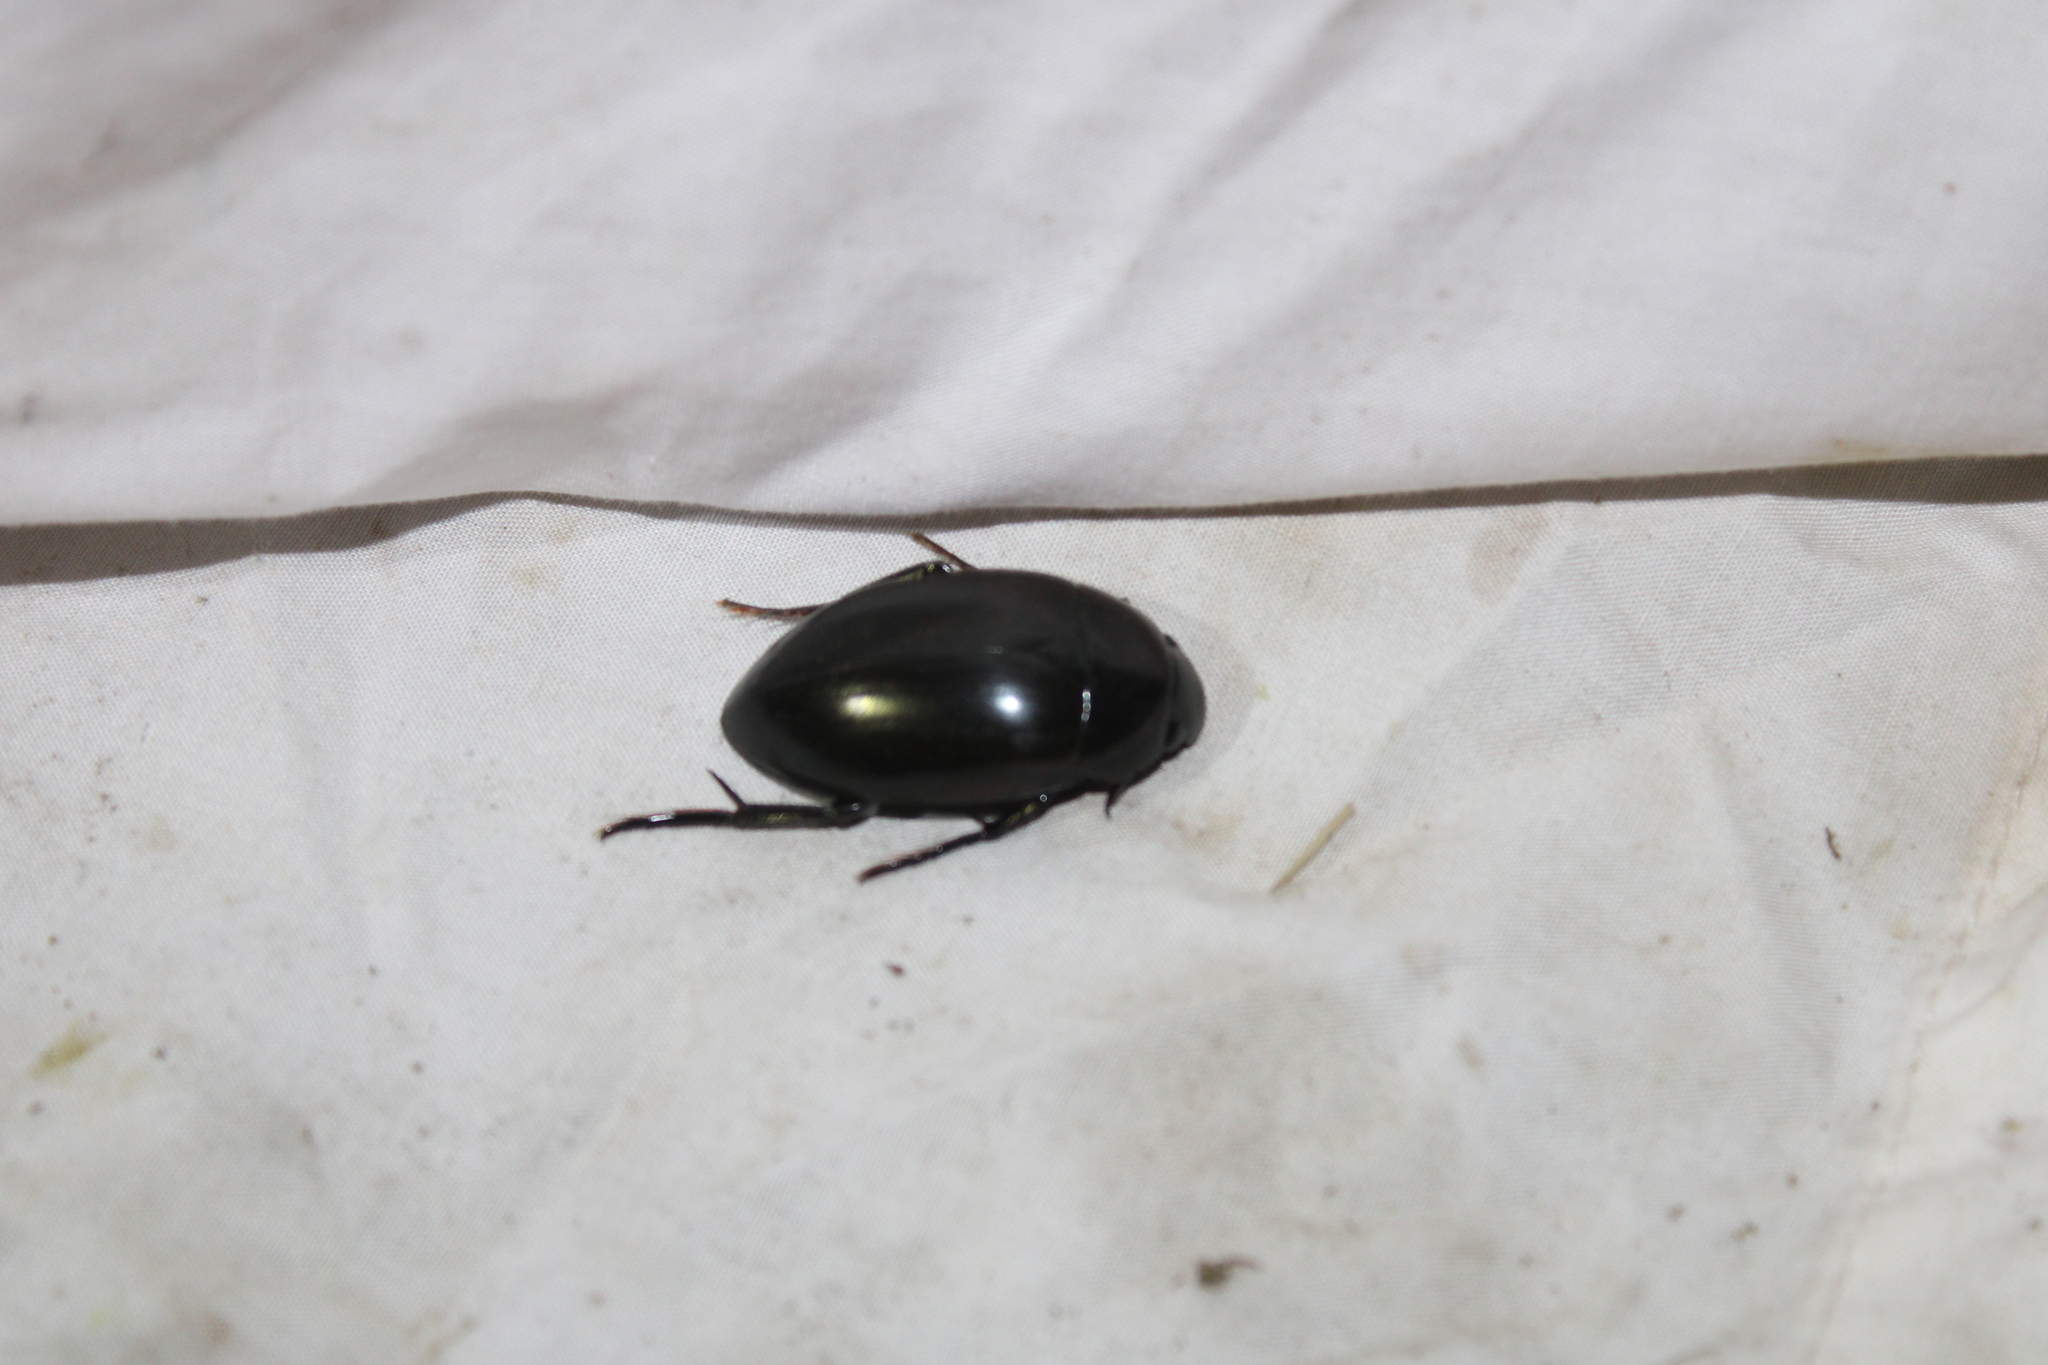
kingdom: Animalia
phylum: Arthropoda
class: Insecta
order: Coleoptera
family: Hydrophilidae
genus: Hydrophilus
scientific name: Hydrophilus ovatus
